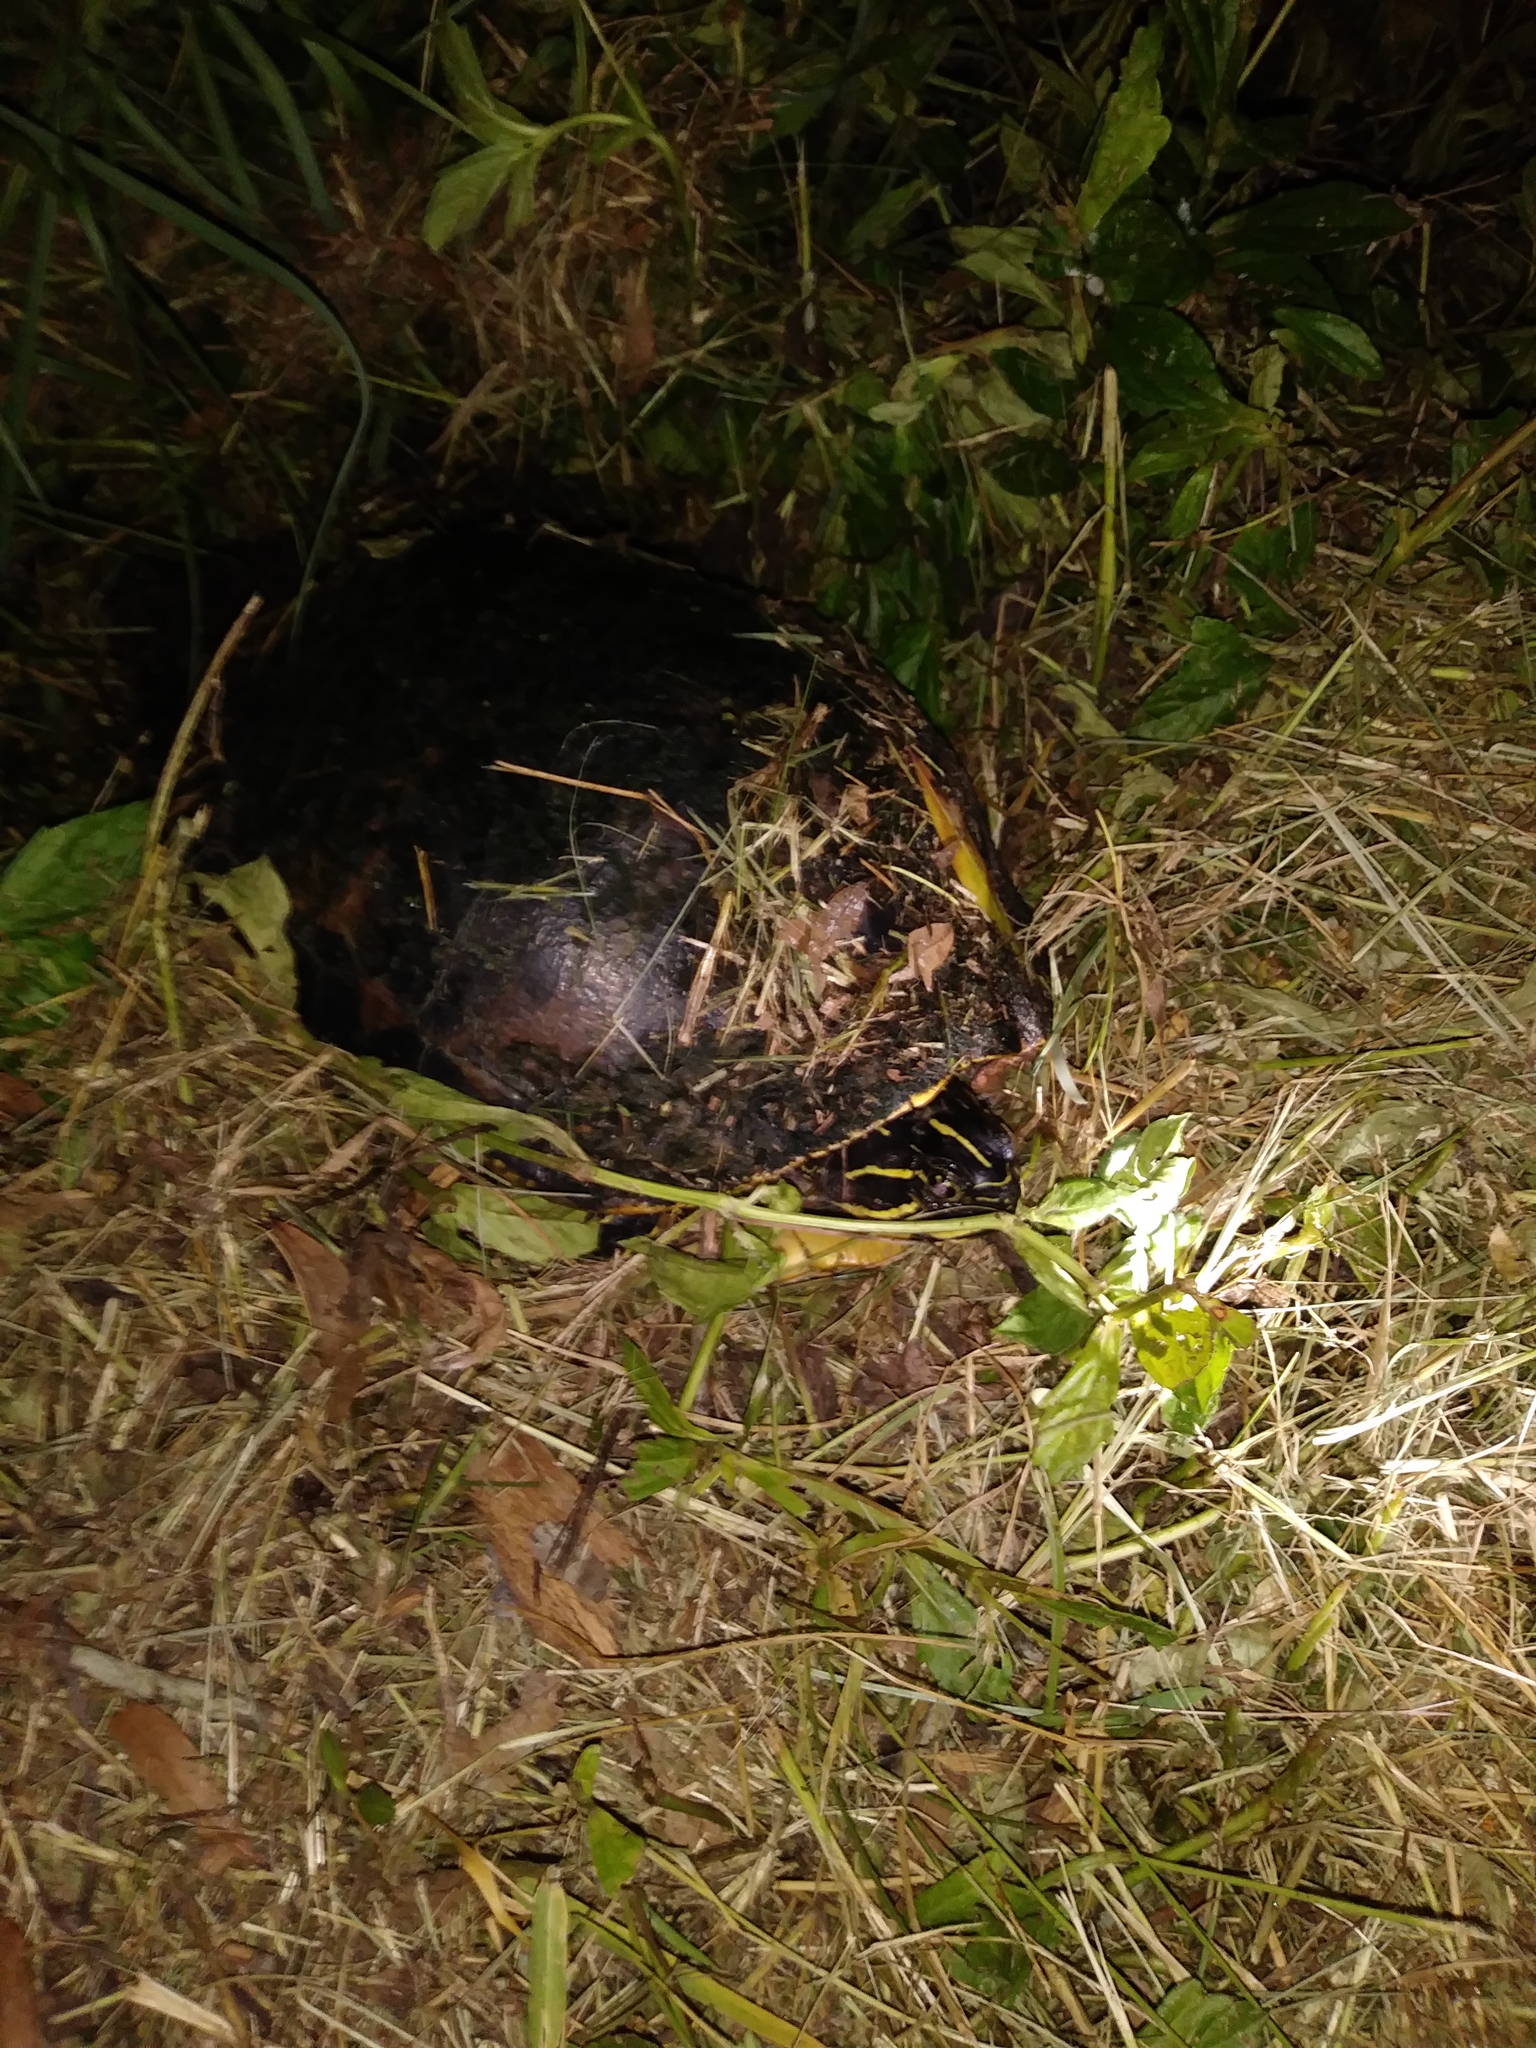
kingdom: Animalia
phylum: Chordata
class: Testudines
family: Emydidae
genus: Pseudemys
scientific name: Pseudemys nelsoni
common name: Florida red-bellied turtle
